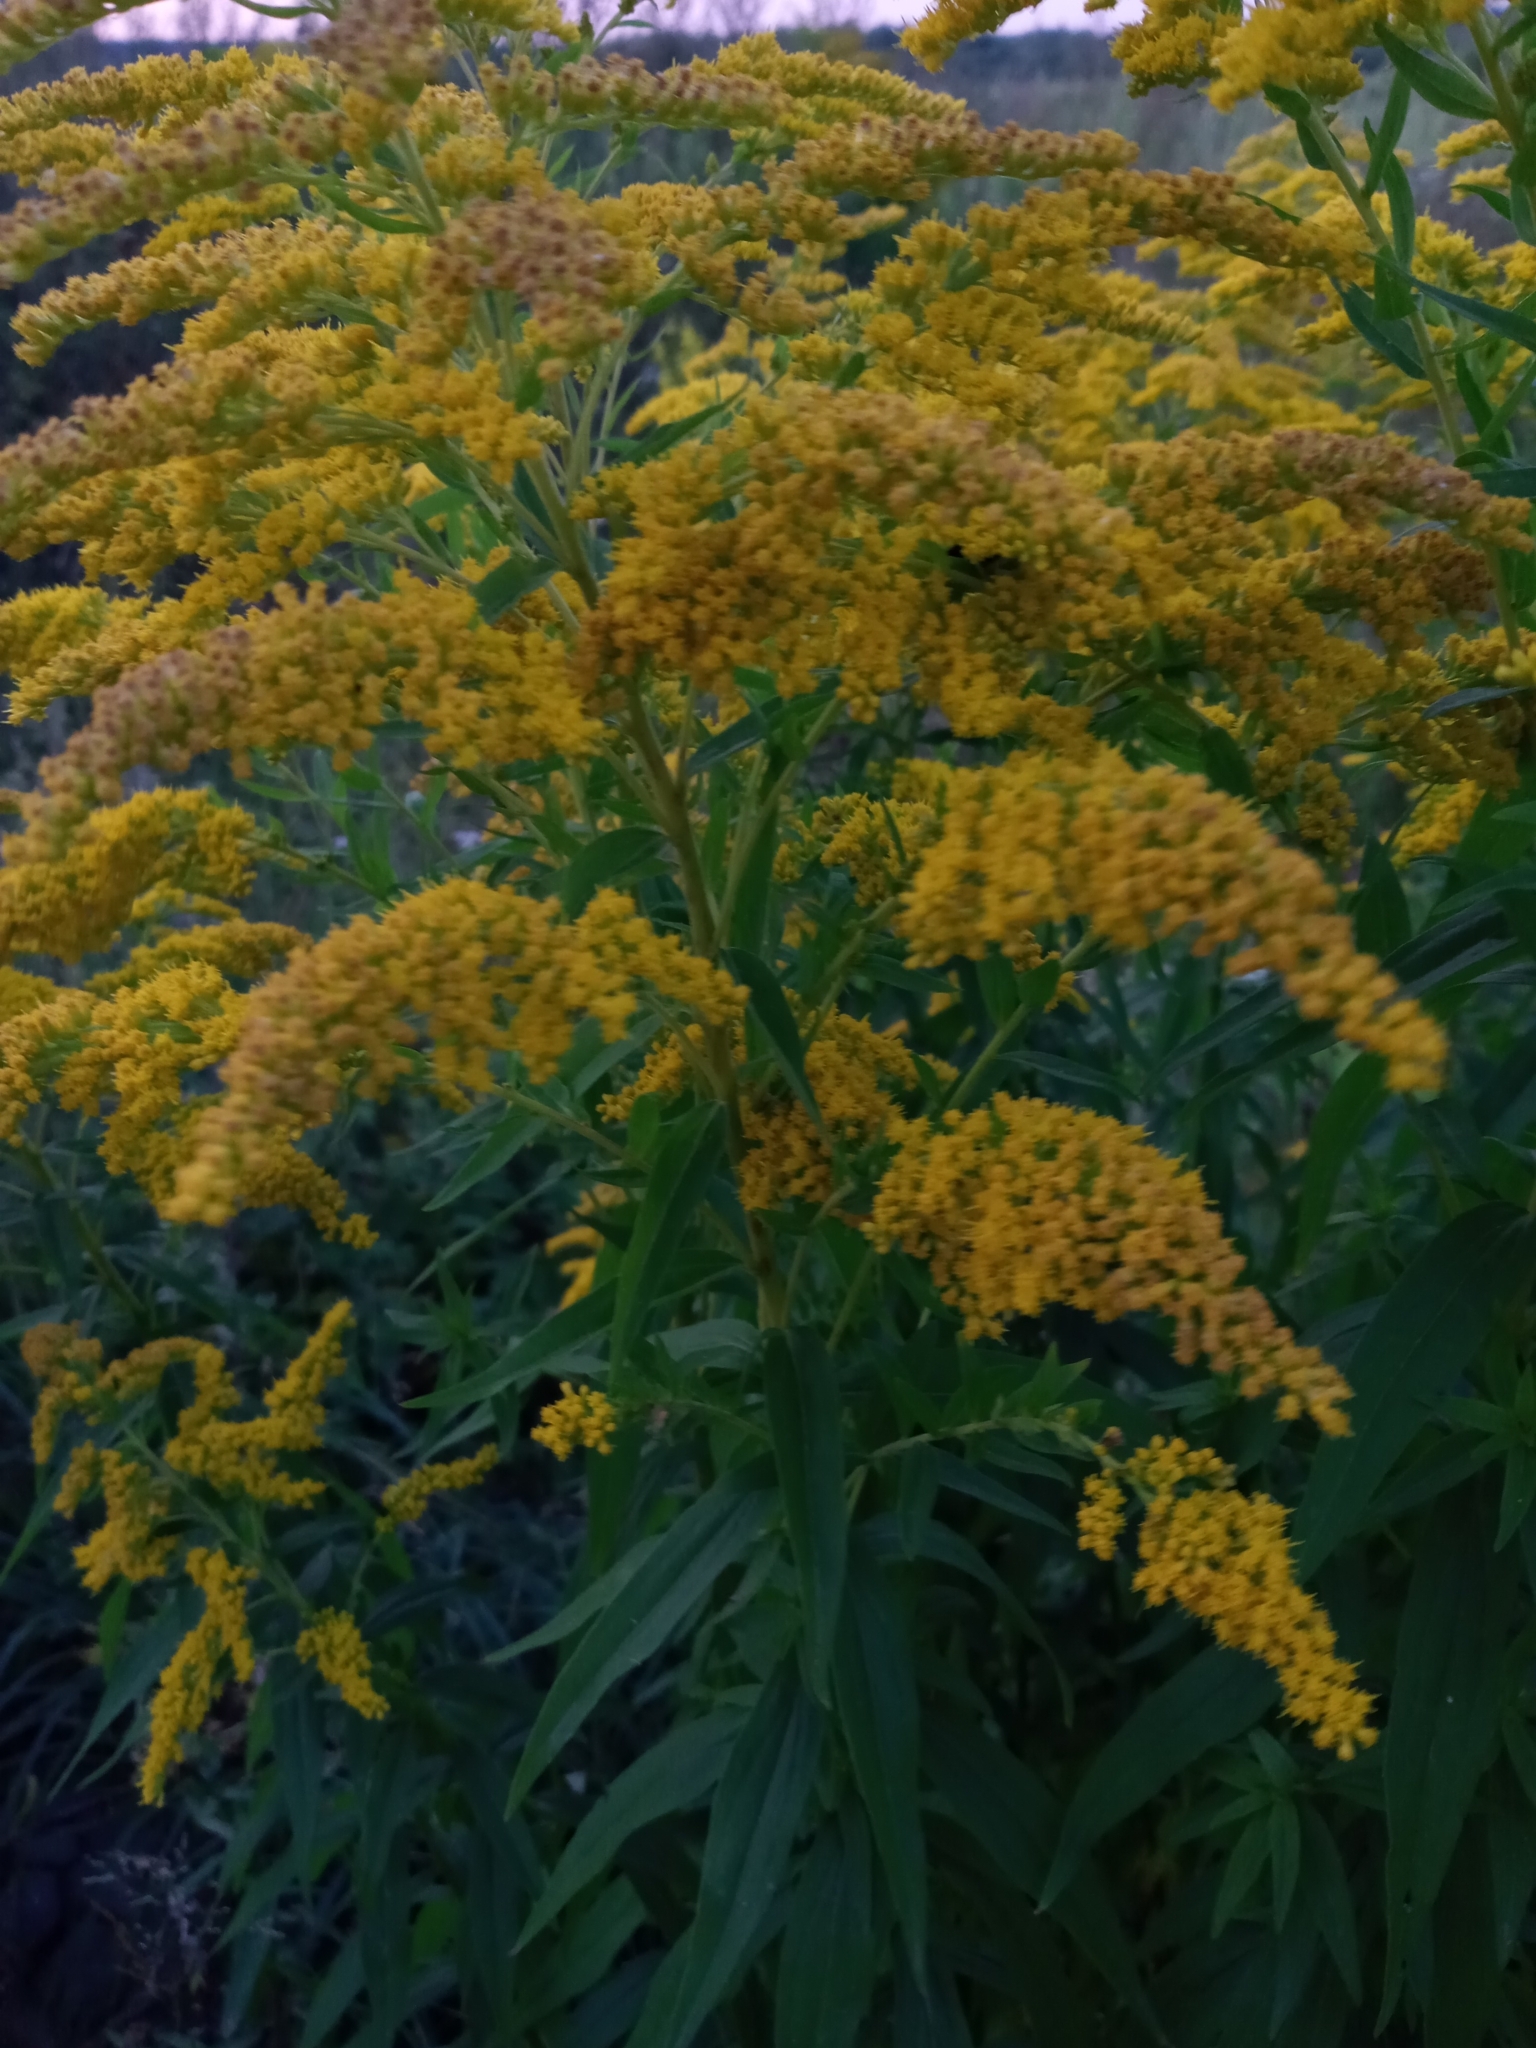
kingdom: Plantae
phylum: Tracheophyta
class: Magnoliopsida
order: Asterales
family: Asteraceae
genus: Solidago
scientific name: Solidago canadensis
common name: Canada goldenrod
